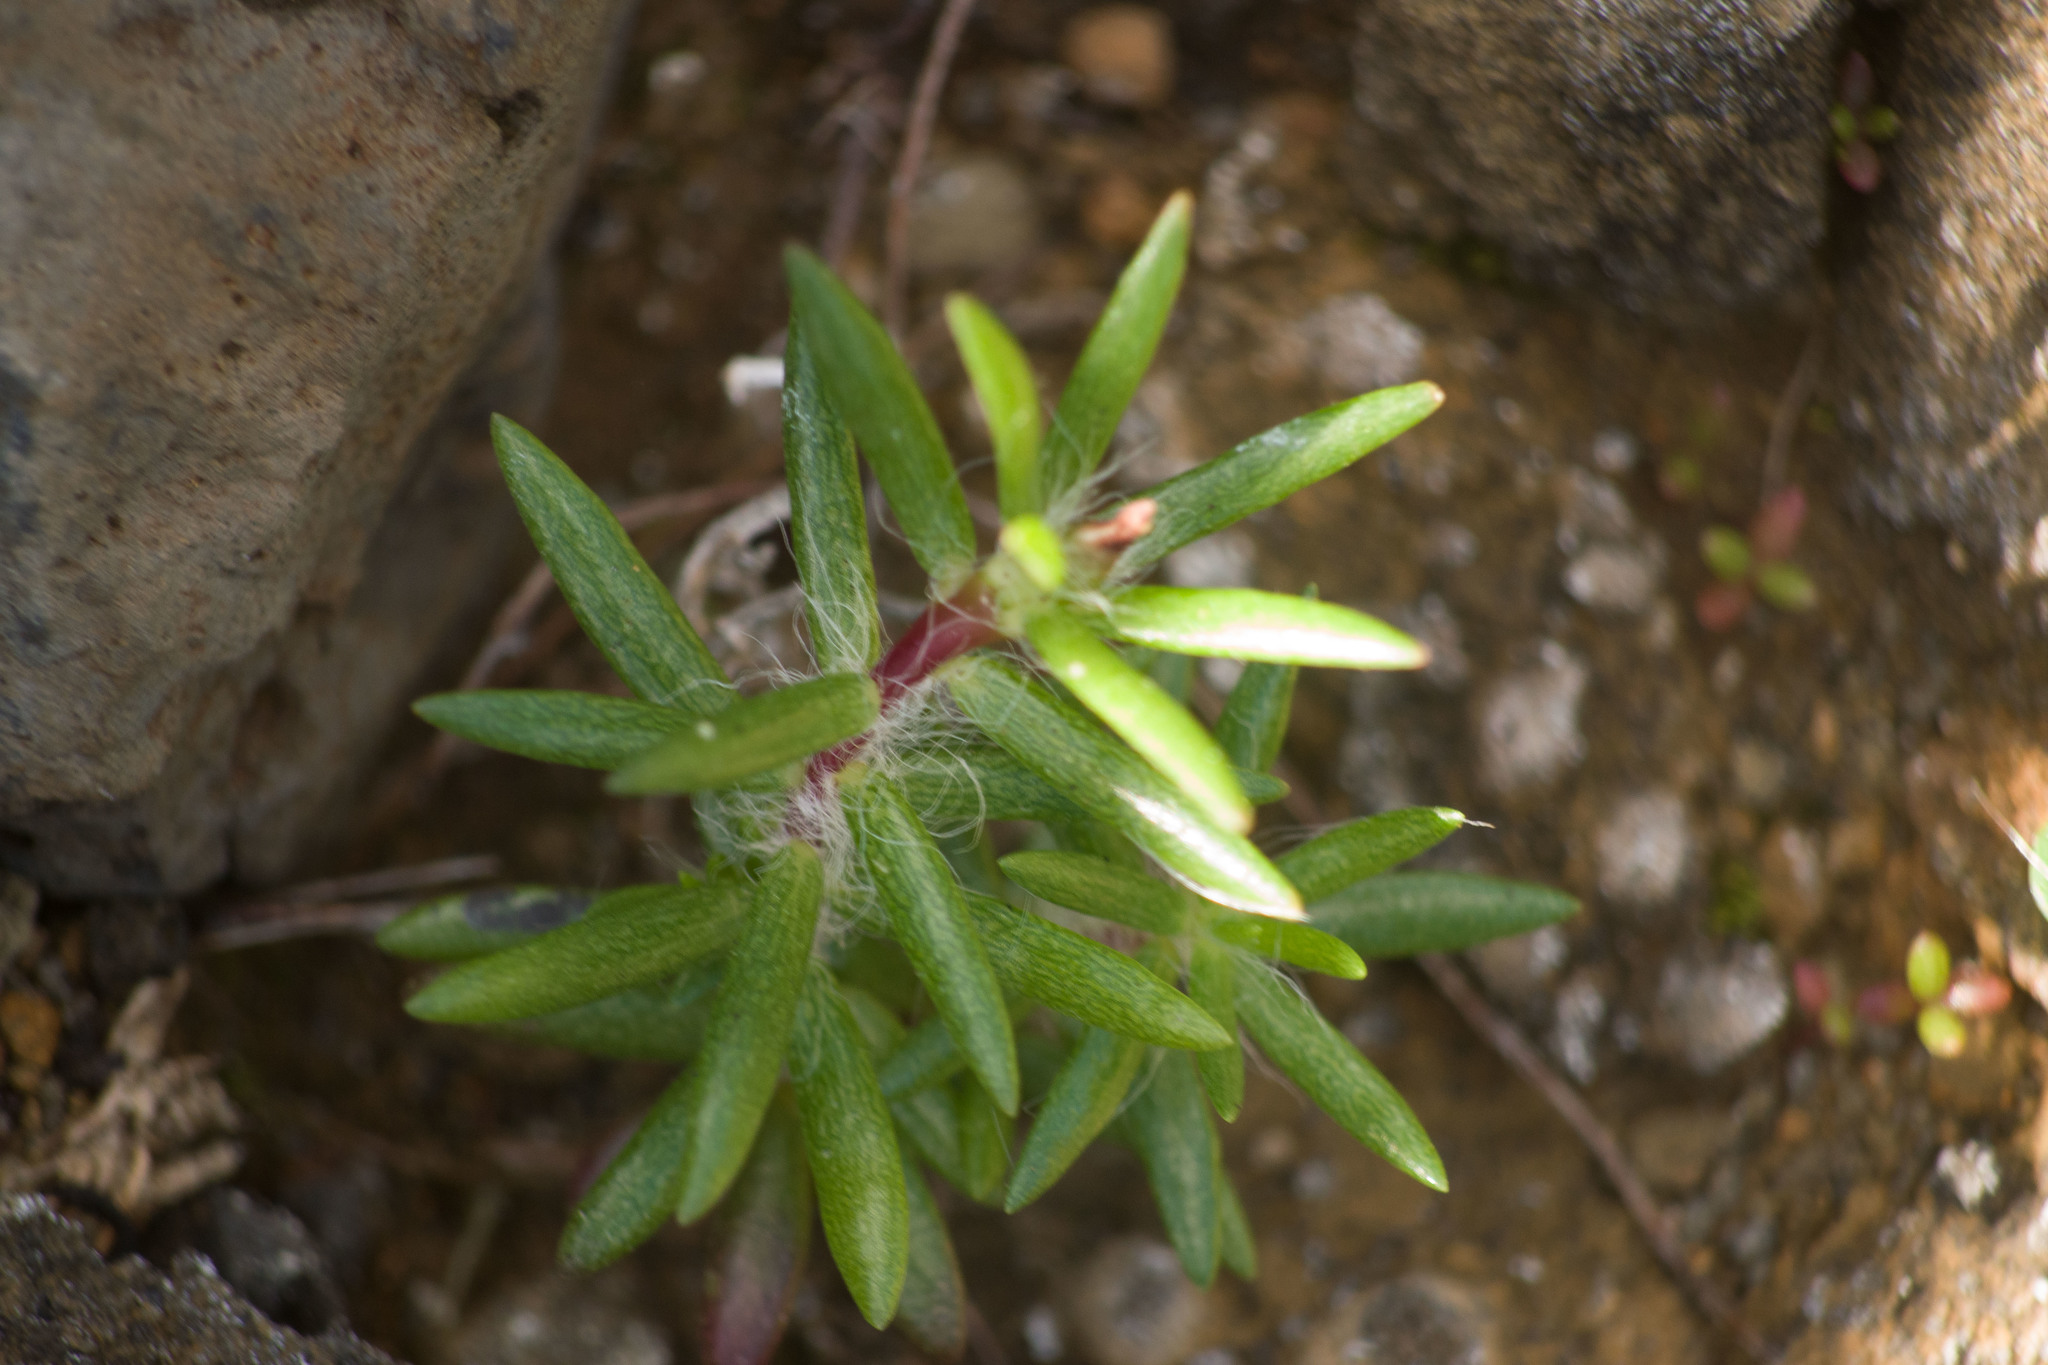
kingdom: Plantae
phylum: Tracheophyta
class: Magnoliopsida
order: Caryophyllales
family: Portulacaceae
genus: Portulaca
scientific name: Portulaca pilosa
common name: Kiss me quick
